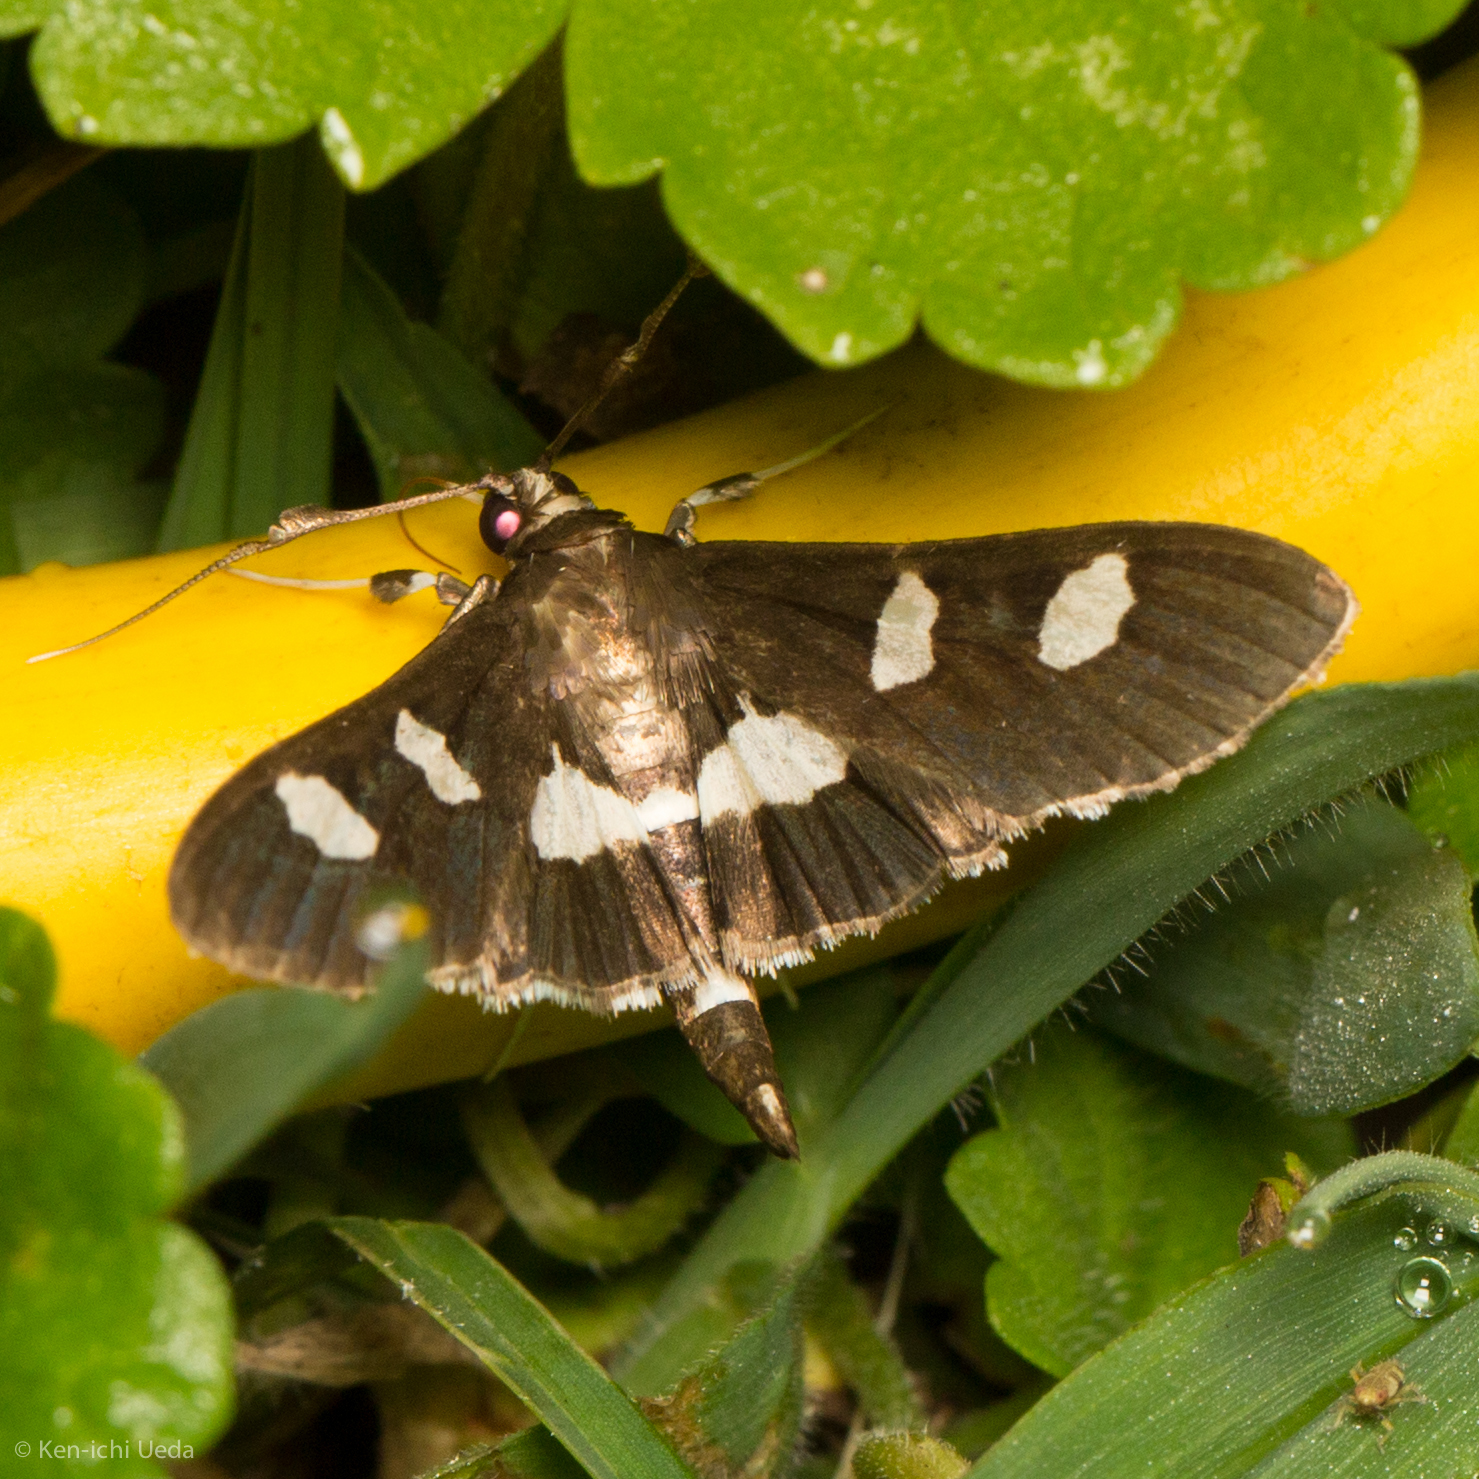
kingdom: Animalia
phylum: Arthropoda
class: Insecta
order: Lepidoptera
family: Crambidae
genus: Desmia
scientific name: Desmia
